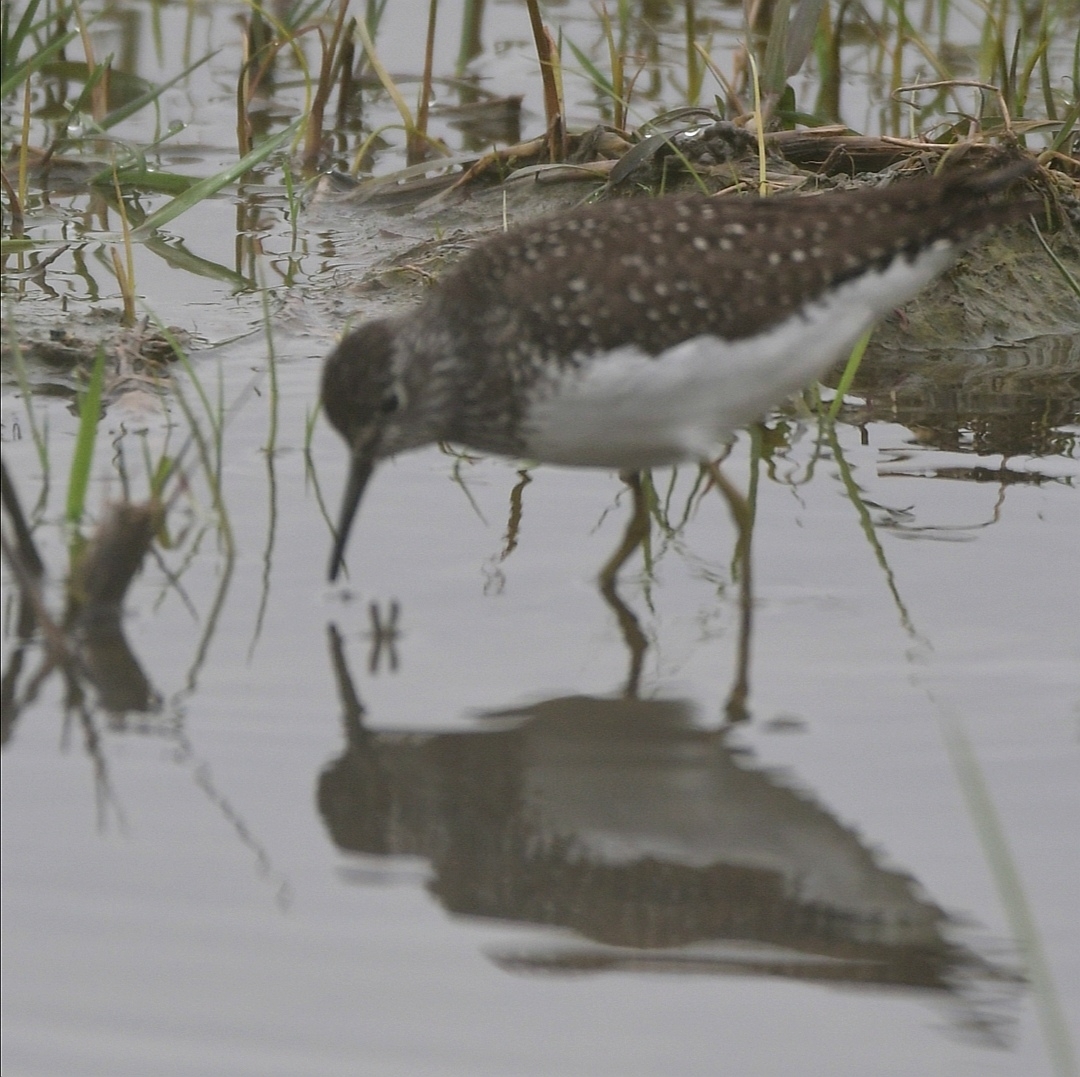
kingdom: Animalia
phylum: Chordata
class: Aves
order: Charadriiformes
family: Scolopacidae
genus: Tringa
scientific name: Tringa solitaria
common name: Solitary sandpiper
